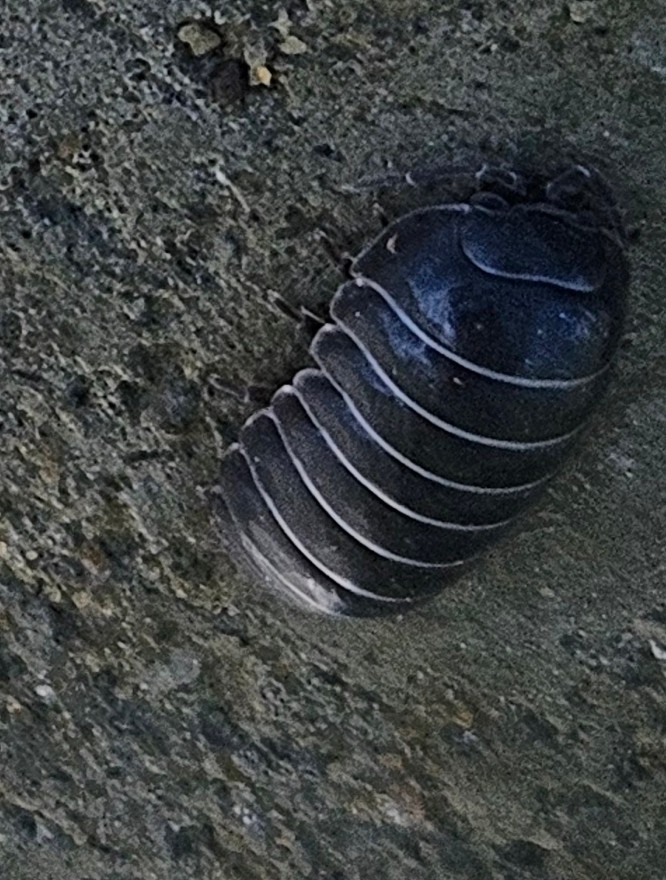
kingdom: Animalia
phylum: Arthropoda
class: Malacostraca
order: Isopoda
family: Armadillidiidae
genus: Armadillidium
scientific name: Armadillidium vulgare
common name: Common pill woodlouse
